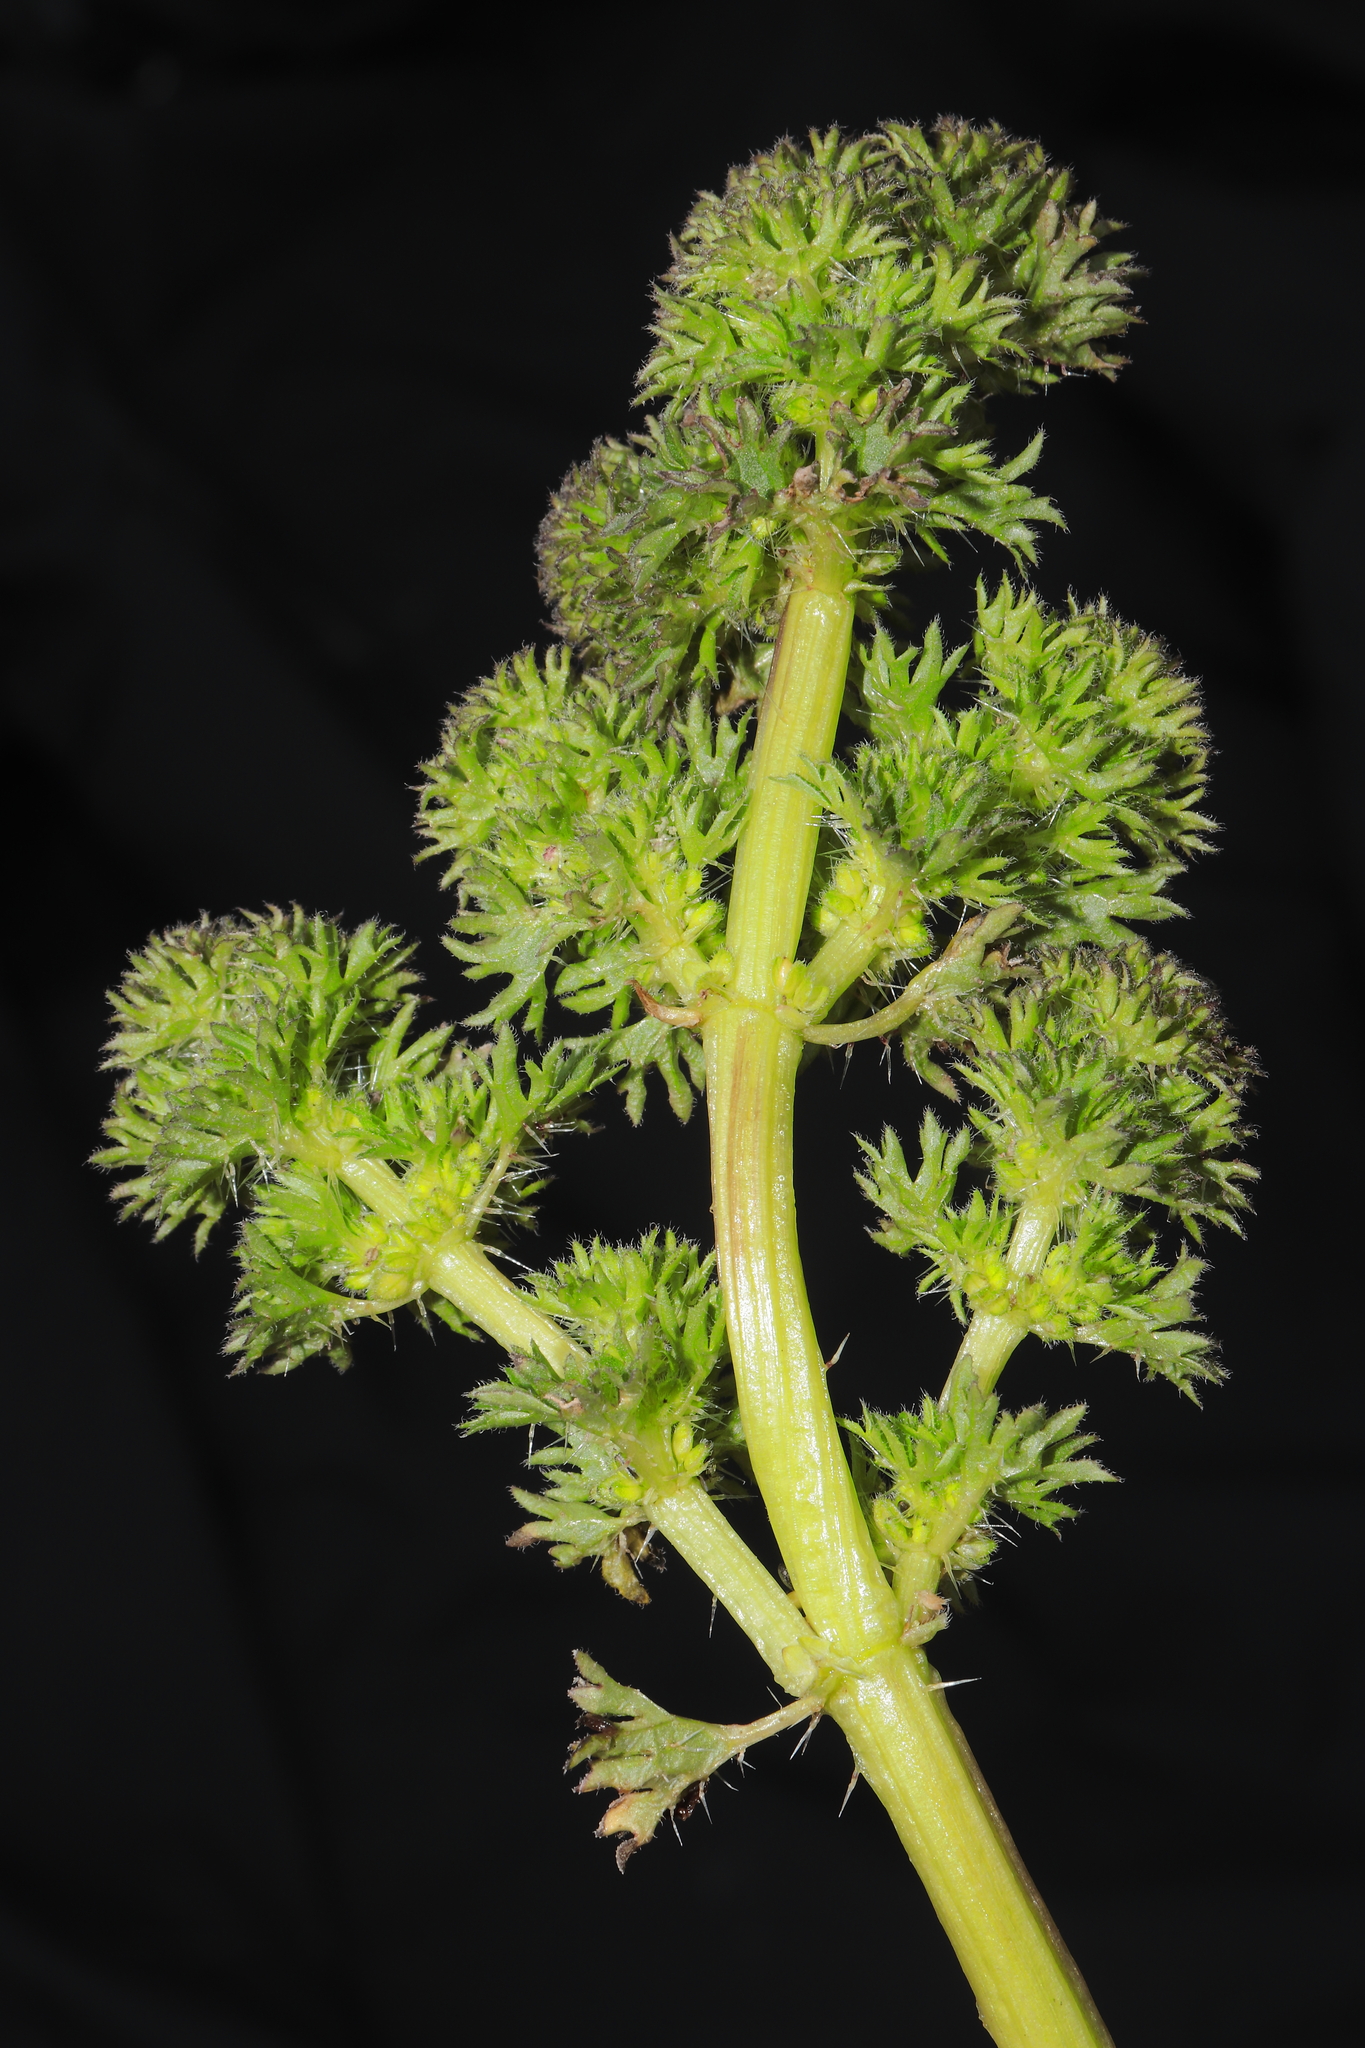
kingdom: Plantae
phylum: Tracheophyta
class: Magnoliopsida
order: Rosales
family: Urticaceae
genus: Urtica
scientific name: Urtica flabellata
